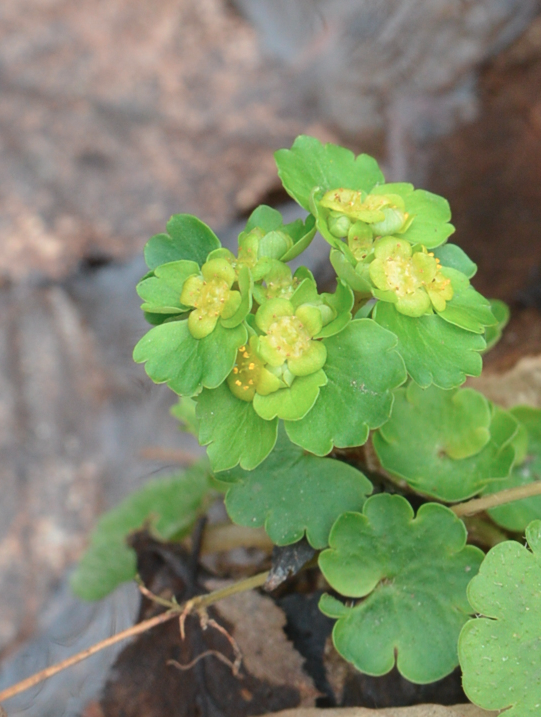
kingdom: Plantae
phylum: Tracheophyta
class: Magnoliopsida
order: Saxifragales
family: Saxifragaceae
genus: Chrysosplenium
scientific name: Chrysosplenium alternifolium
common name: Alternate-leaved golden-saxifrage
